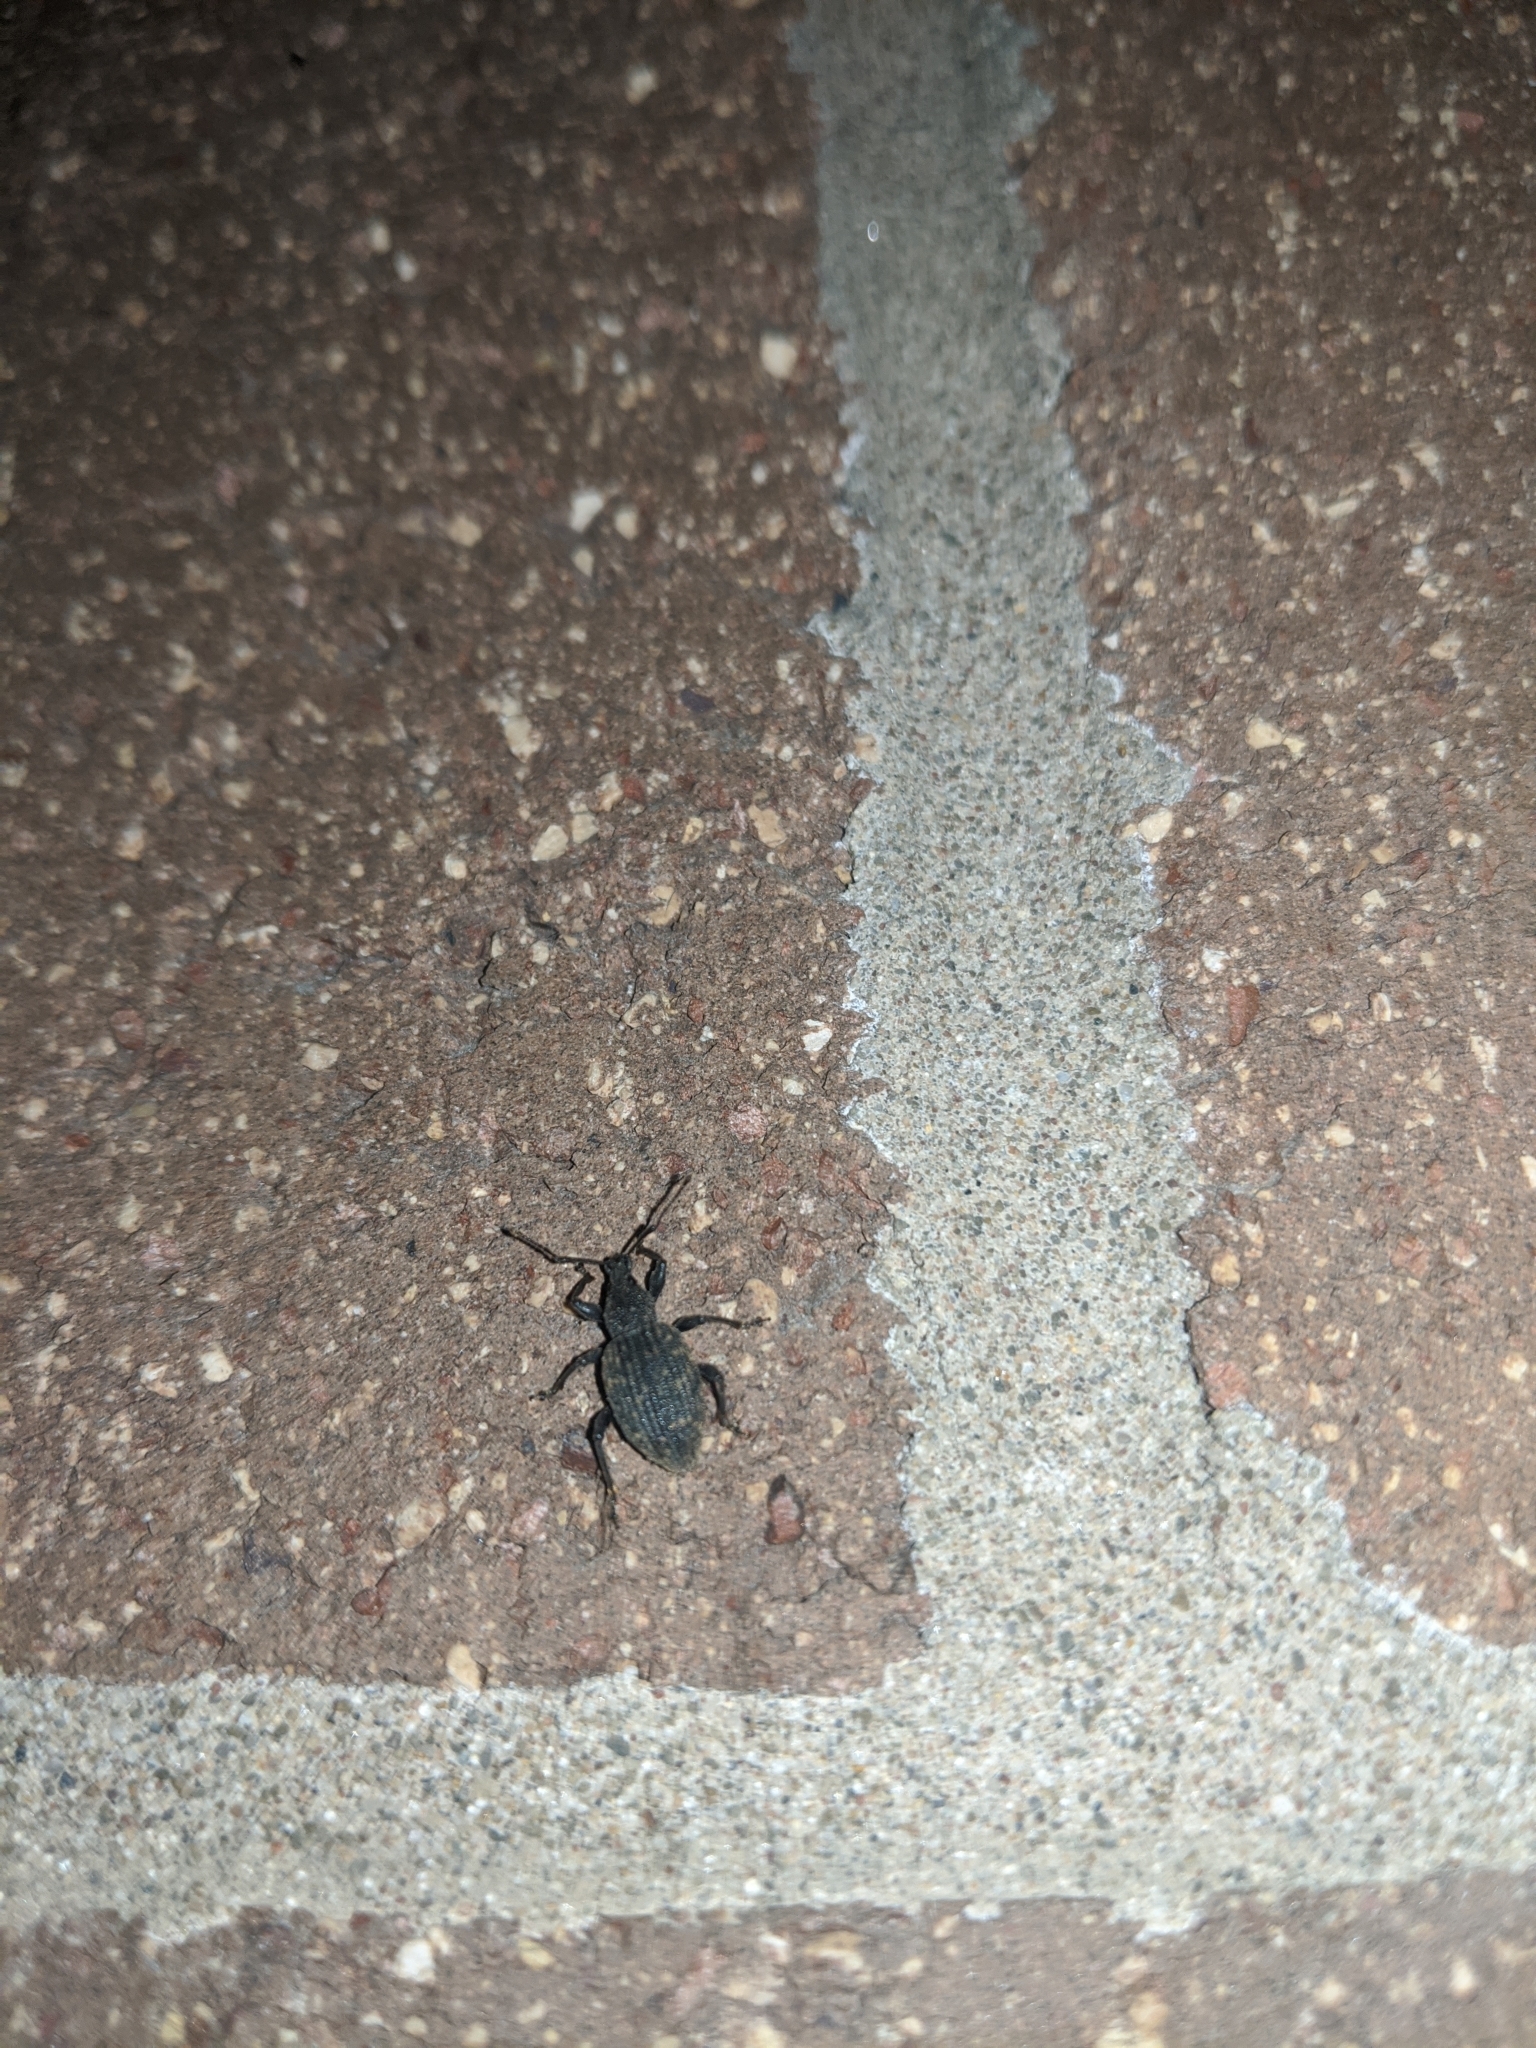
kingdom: Animalia
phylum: Arthropoda
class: Insecta
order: Coleoptera
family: Curculionidae
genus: Otiorhynchus
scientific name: Otiorhynchus sulcatus
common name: Black vine weevil
